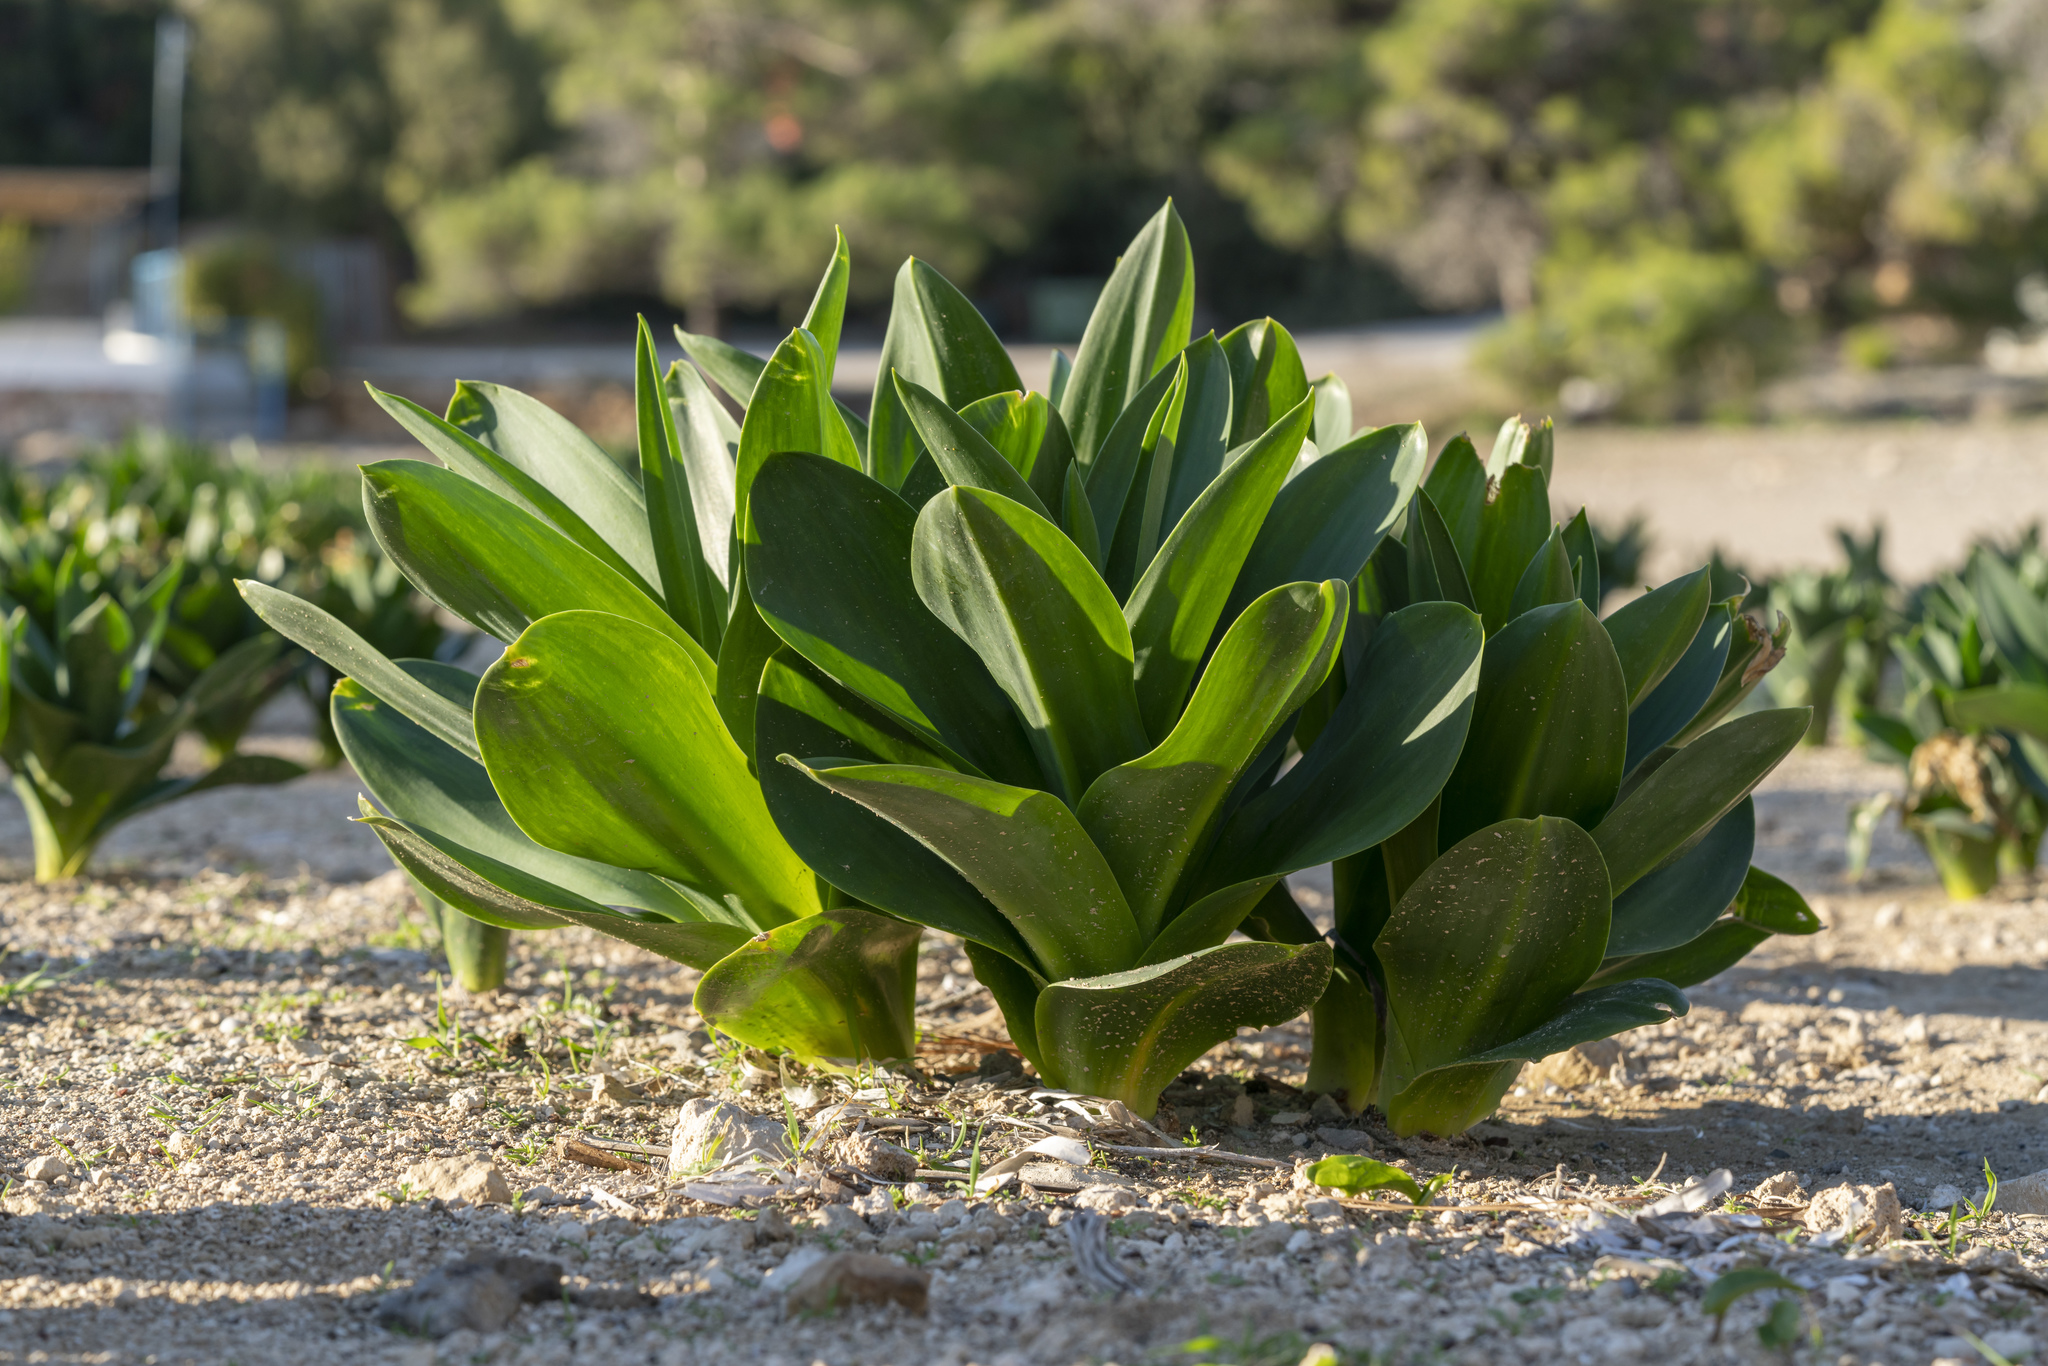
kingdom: Plantae
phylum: Tracheophyta
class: Liliopsida
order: Asparagales
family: Asparagaceae
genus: Drimia
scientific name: Drimia aphylla
